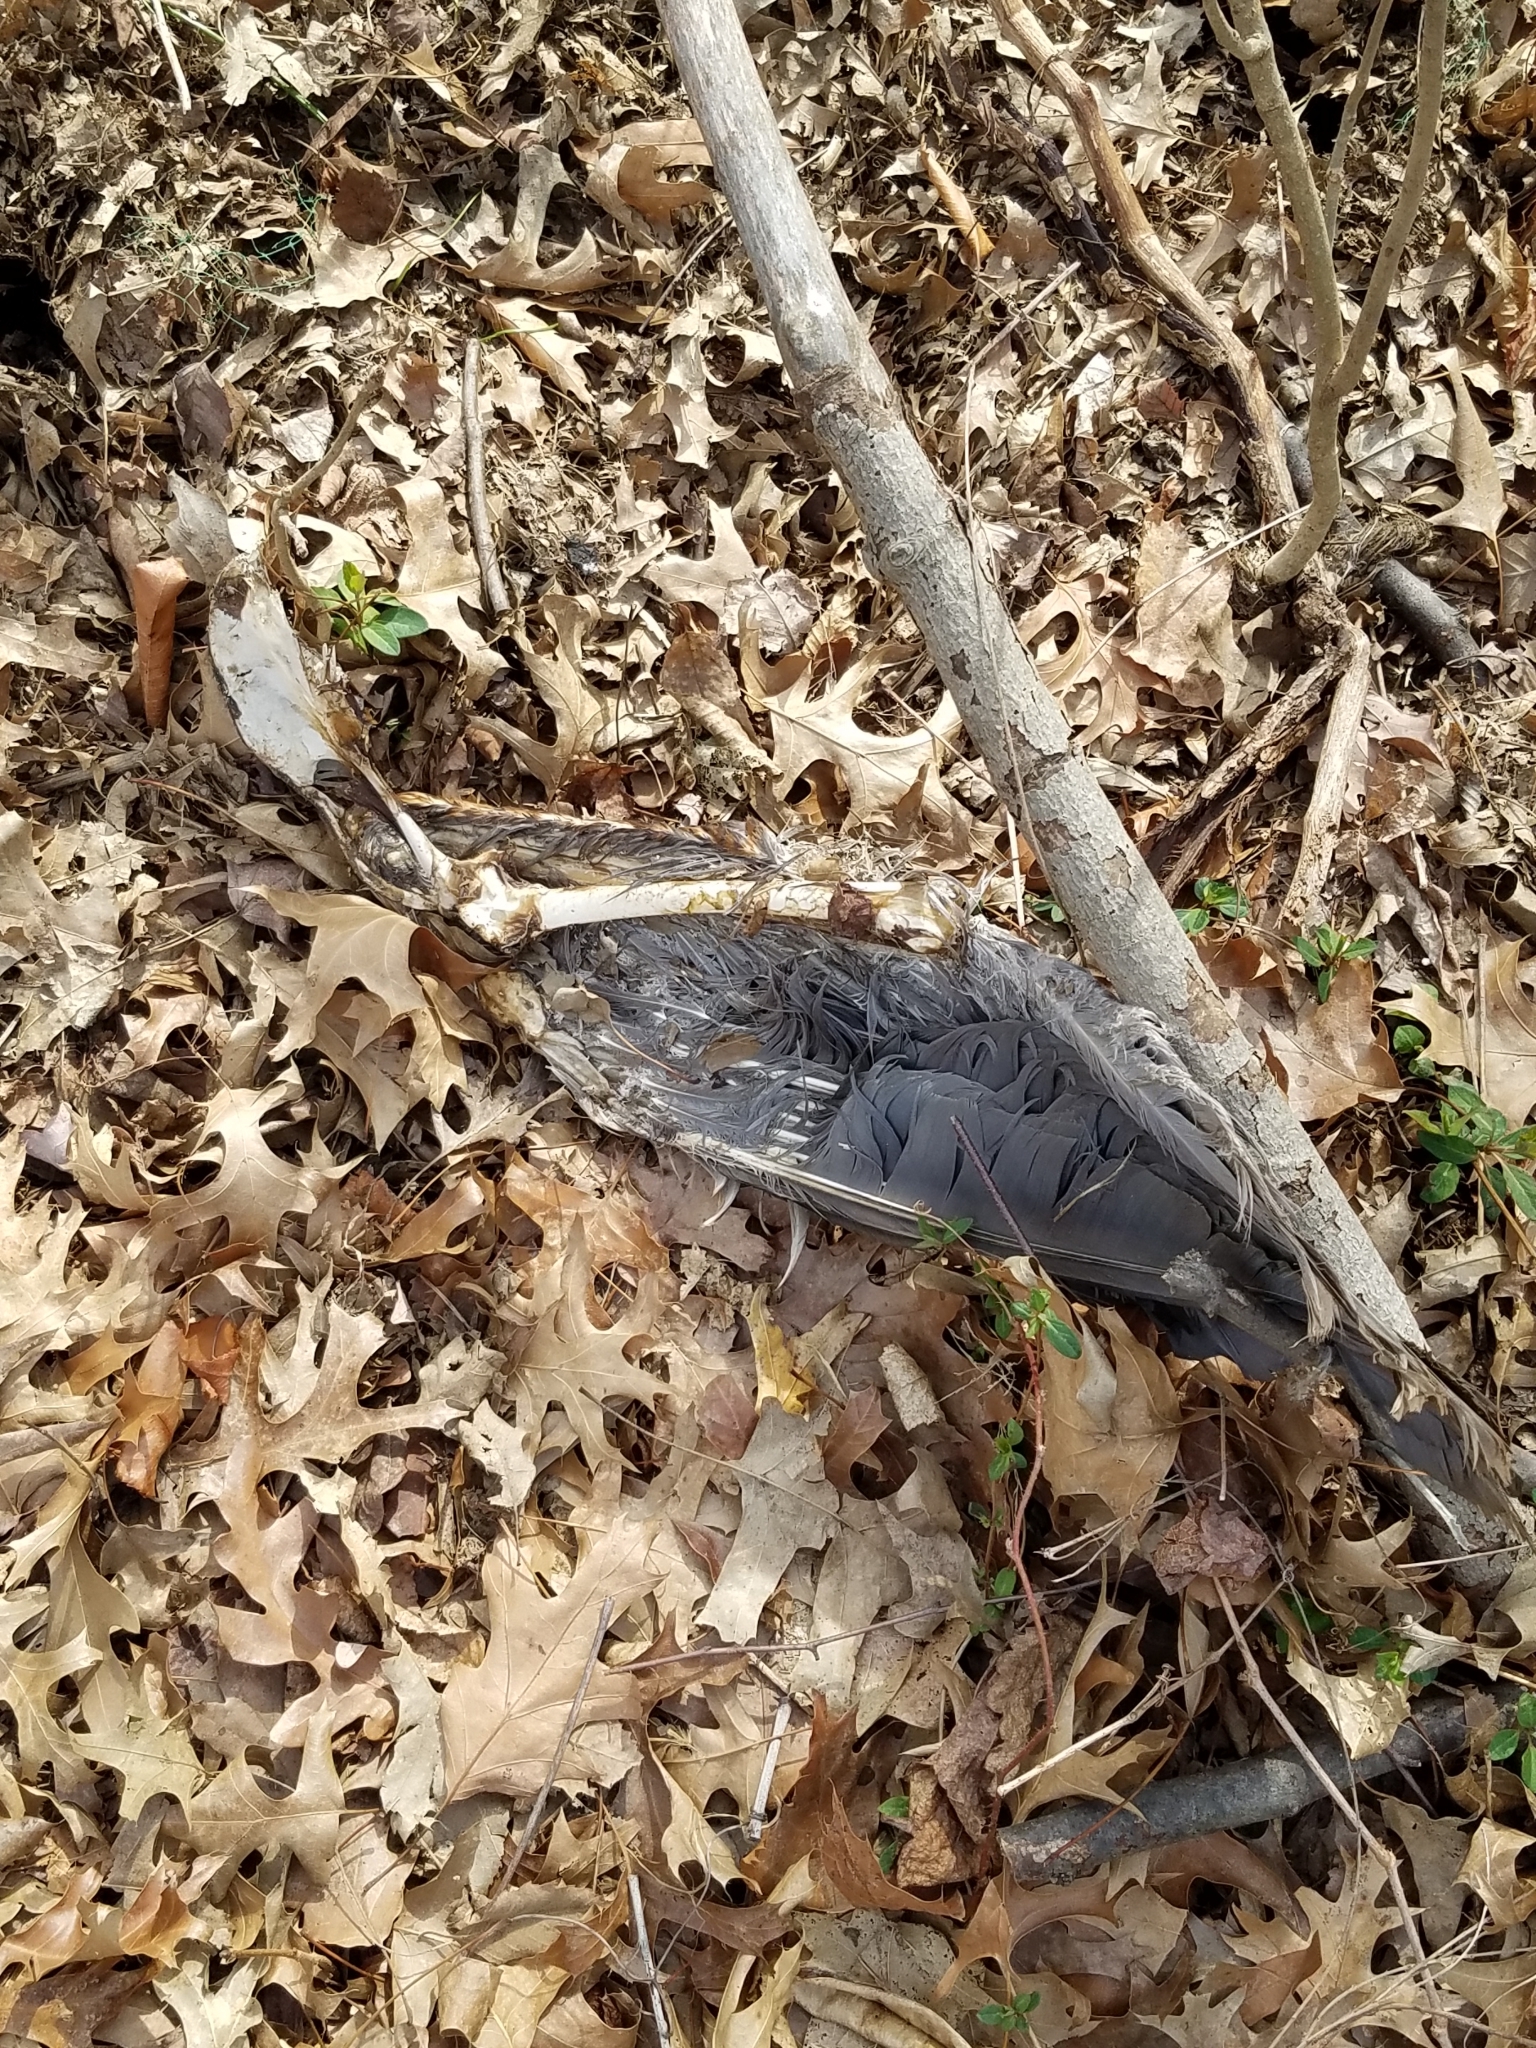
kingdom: Animalia
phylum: Chordata
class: Aves
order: Pelecaniformes
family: Ardeidae
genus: Ardea
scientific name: Ardea herodias
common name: Great blue heron
